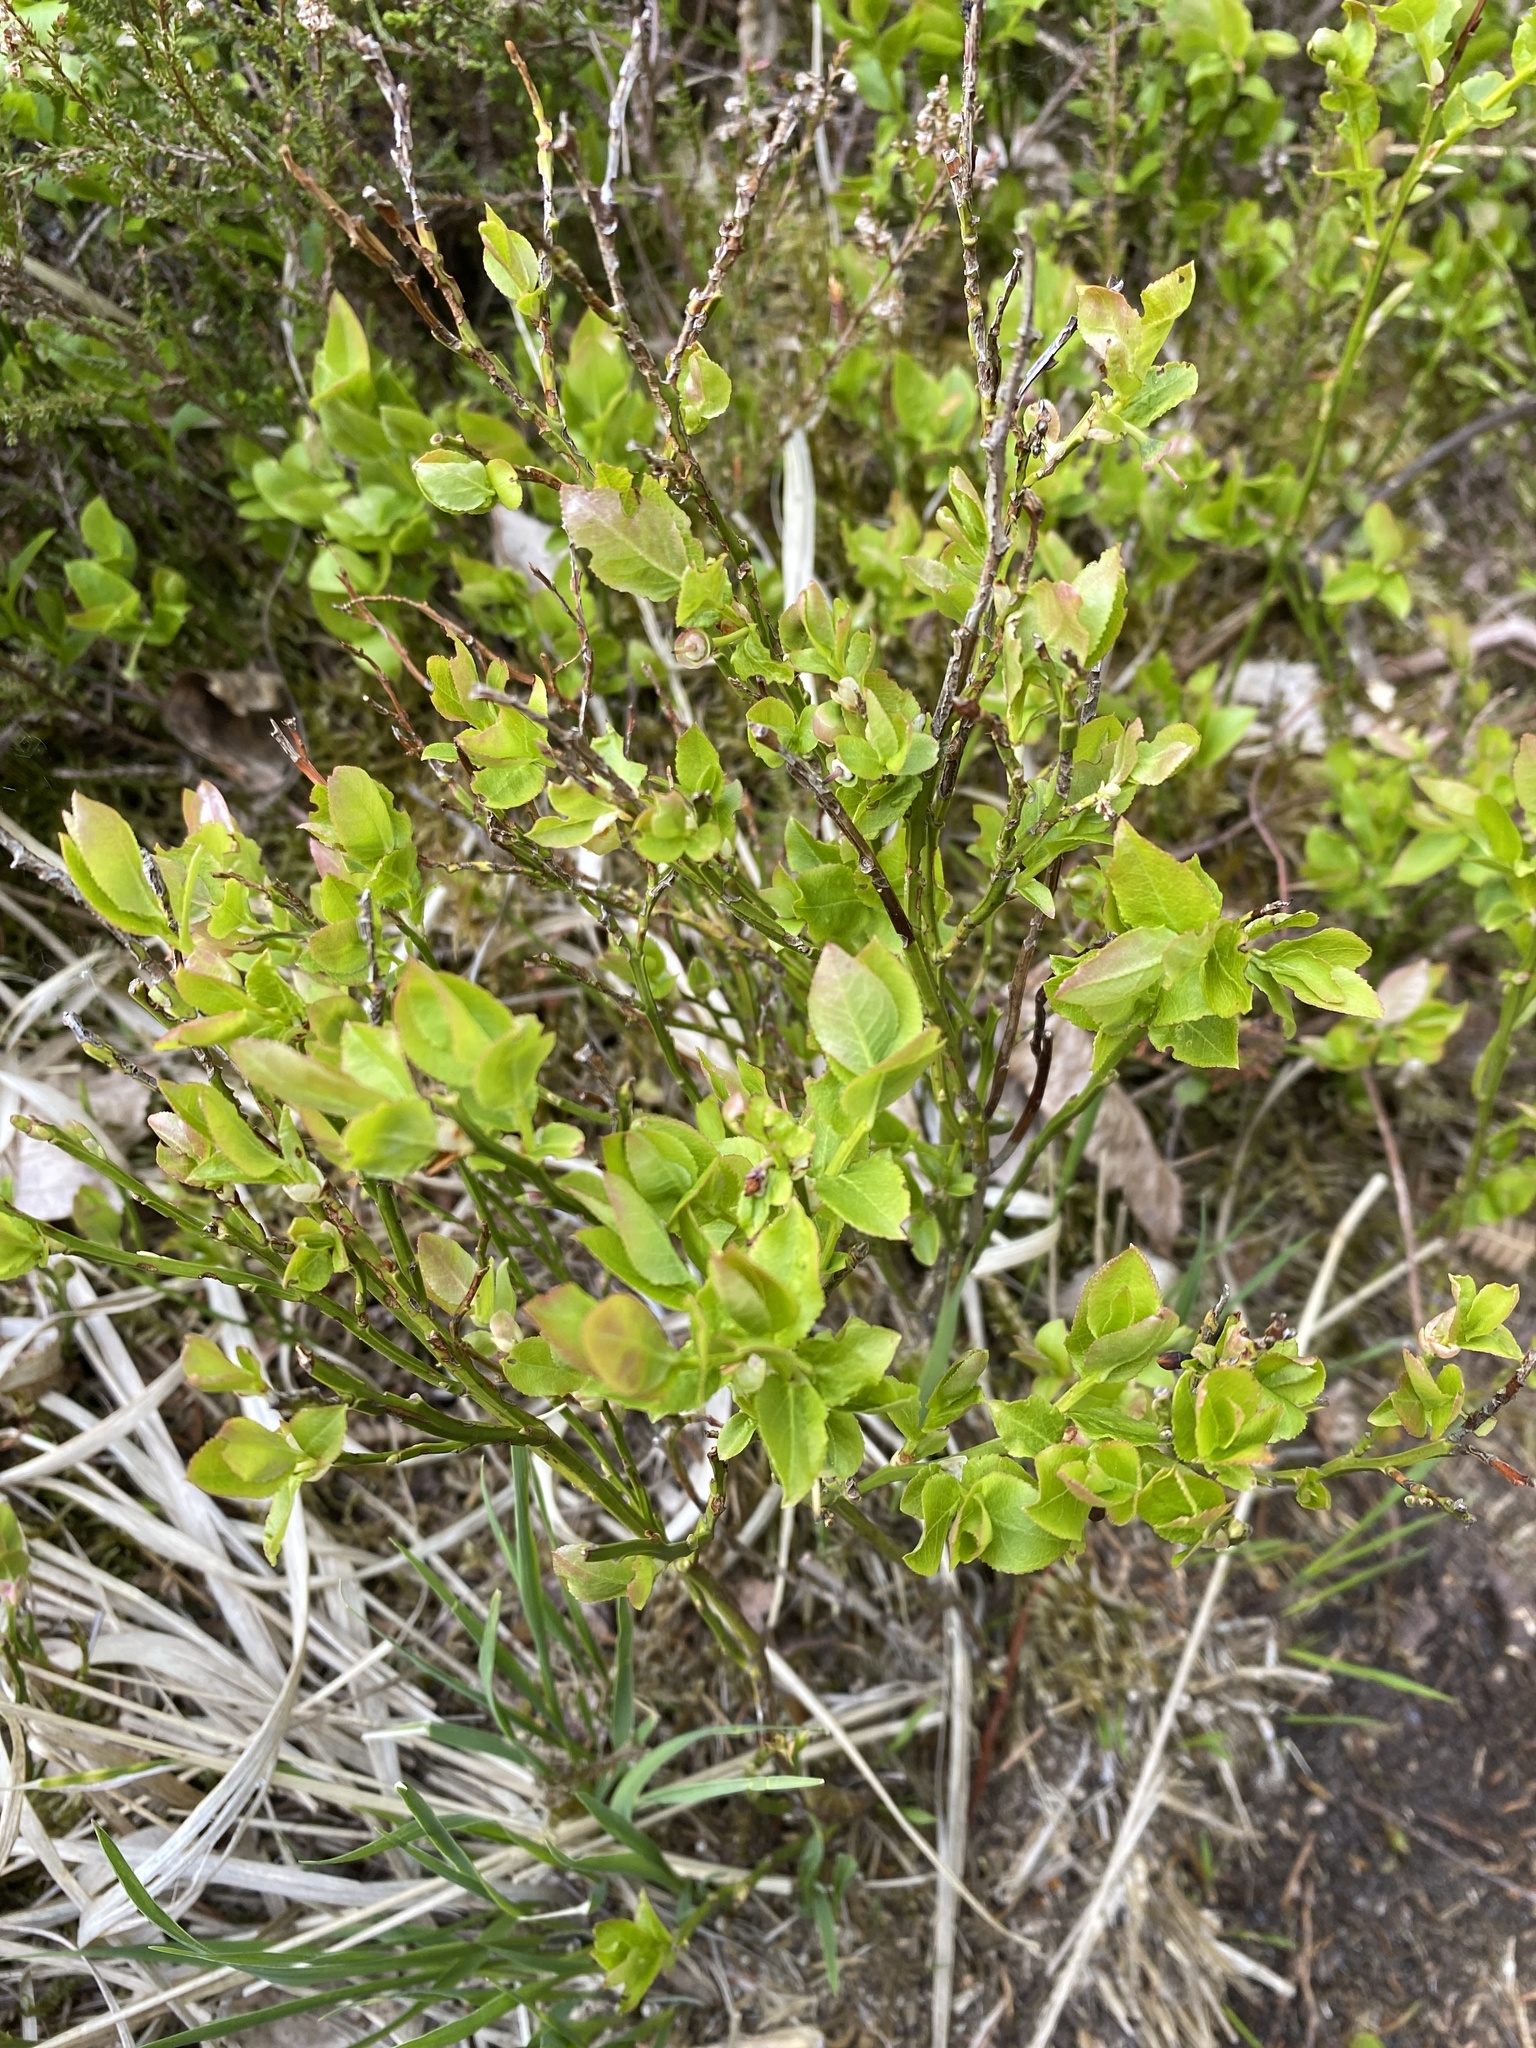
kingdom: Plantae
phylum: Tracheophyta
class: Magnoliopsida
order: Ericales
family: Ericaceae
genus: Vaccinium
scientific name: Vaccinium myrtillus
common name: Bilberry
